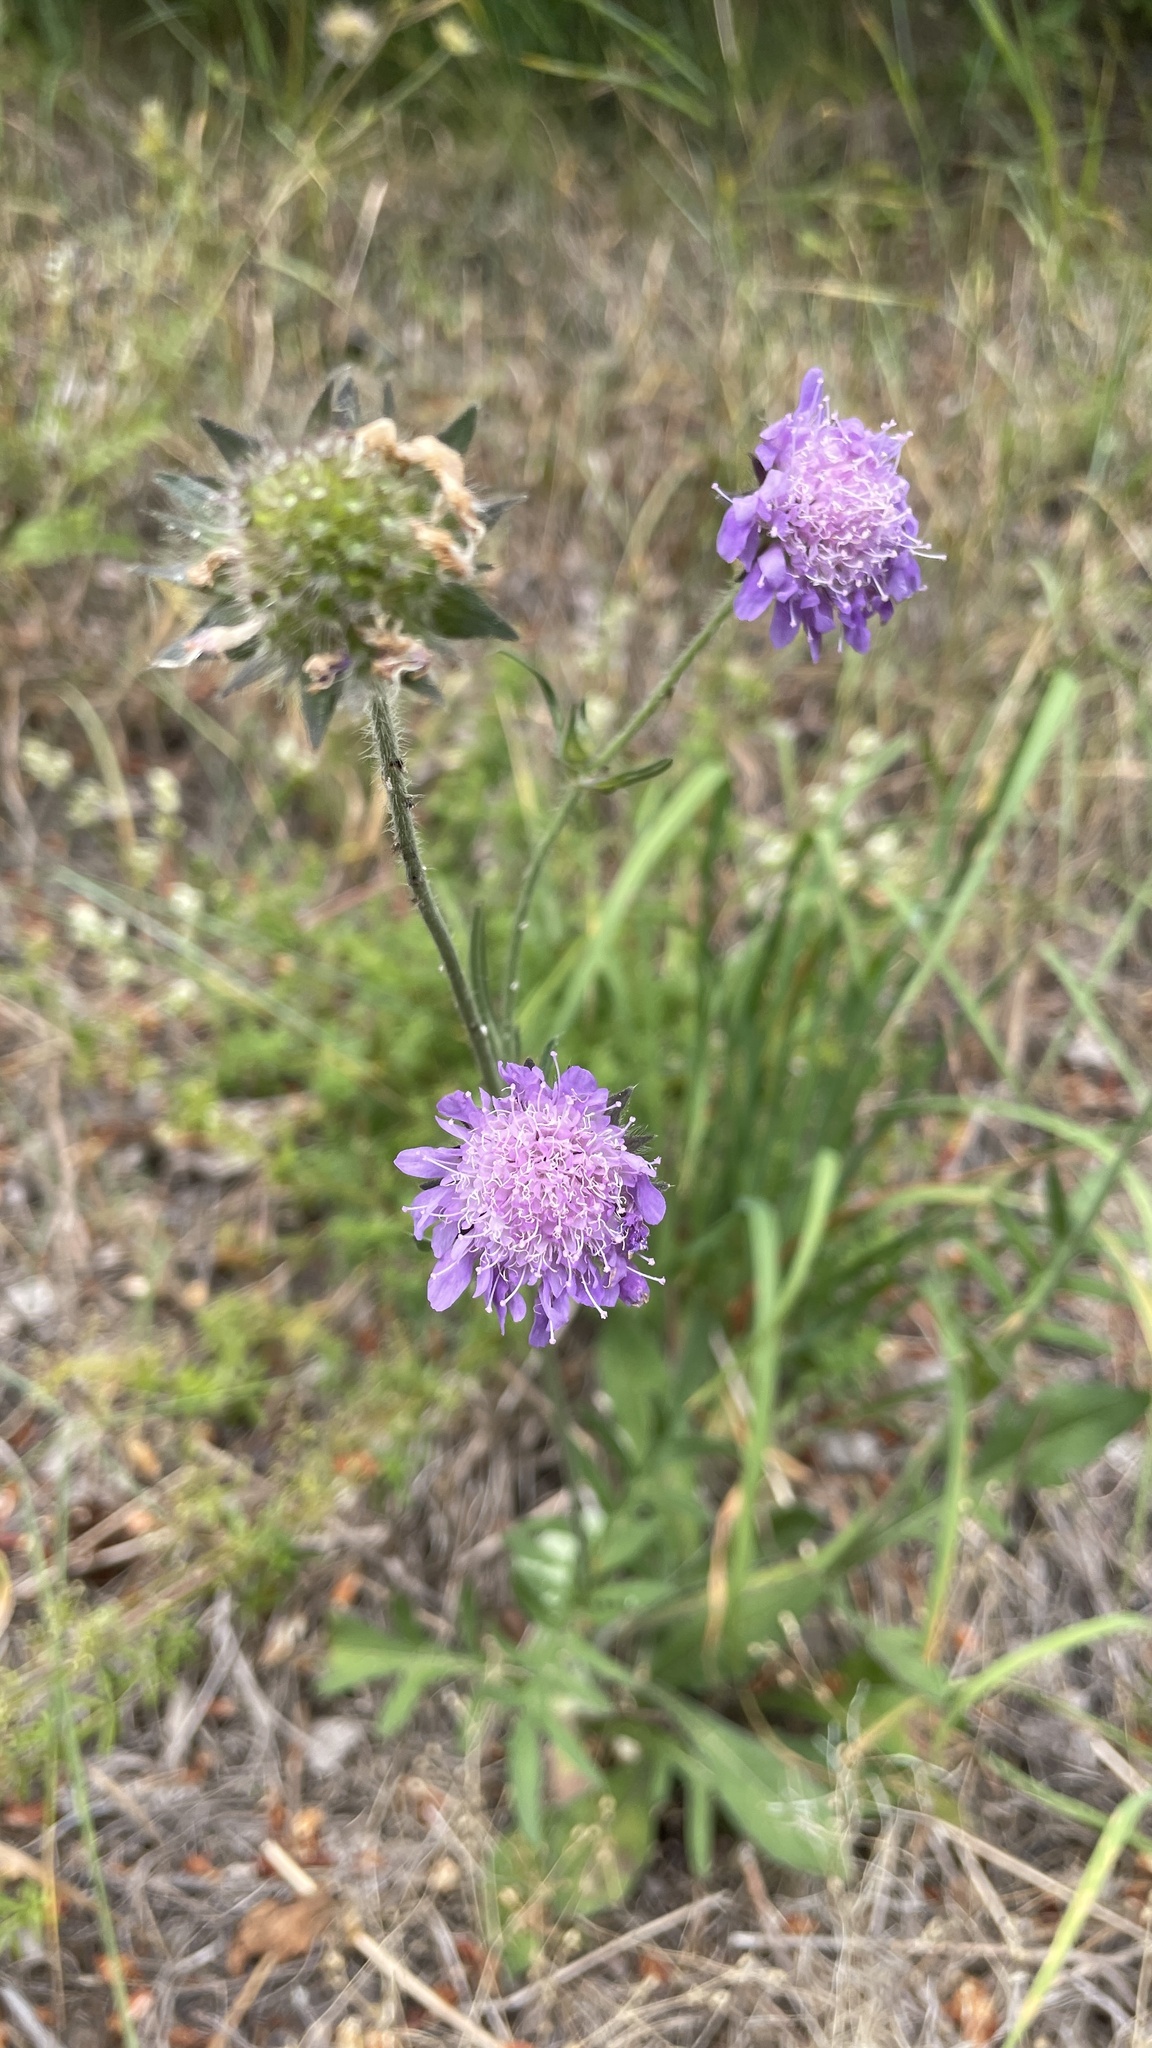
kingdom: Plantae
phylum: Tracheophyta
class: Magnoliopsida
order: Dipsacales
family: Caprifoliaceae
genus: Knautia
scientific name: Knautia arvensis
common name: Field scabiosa
